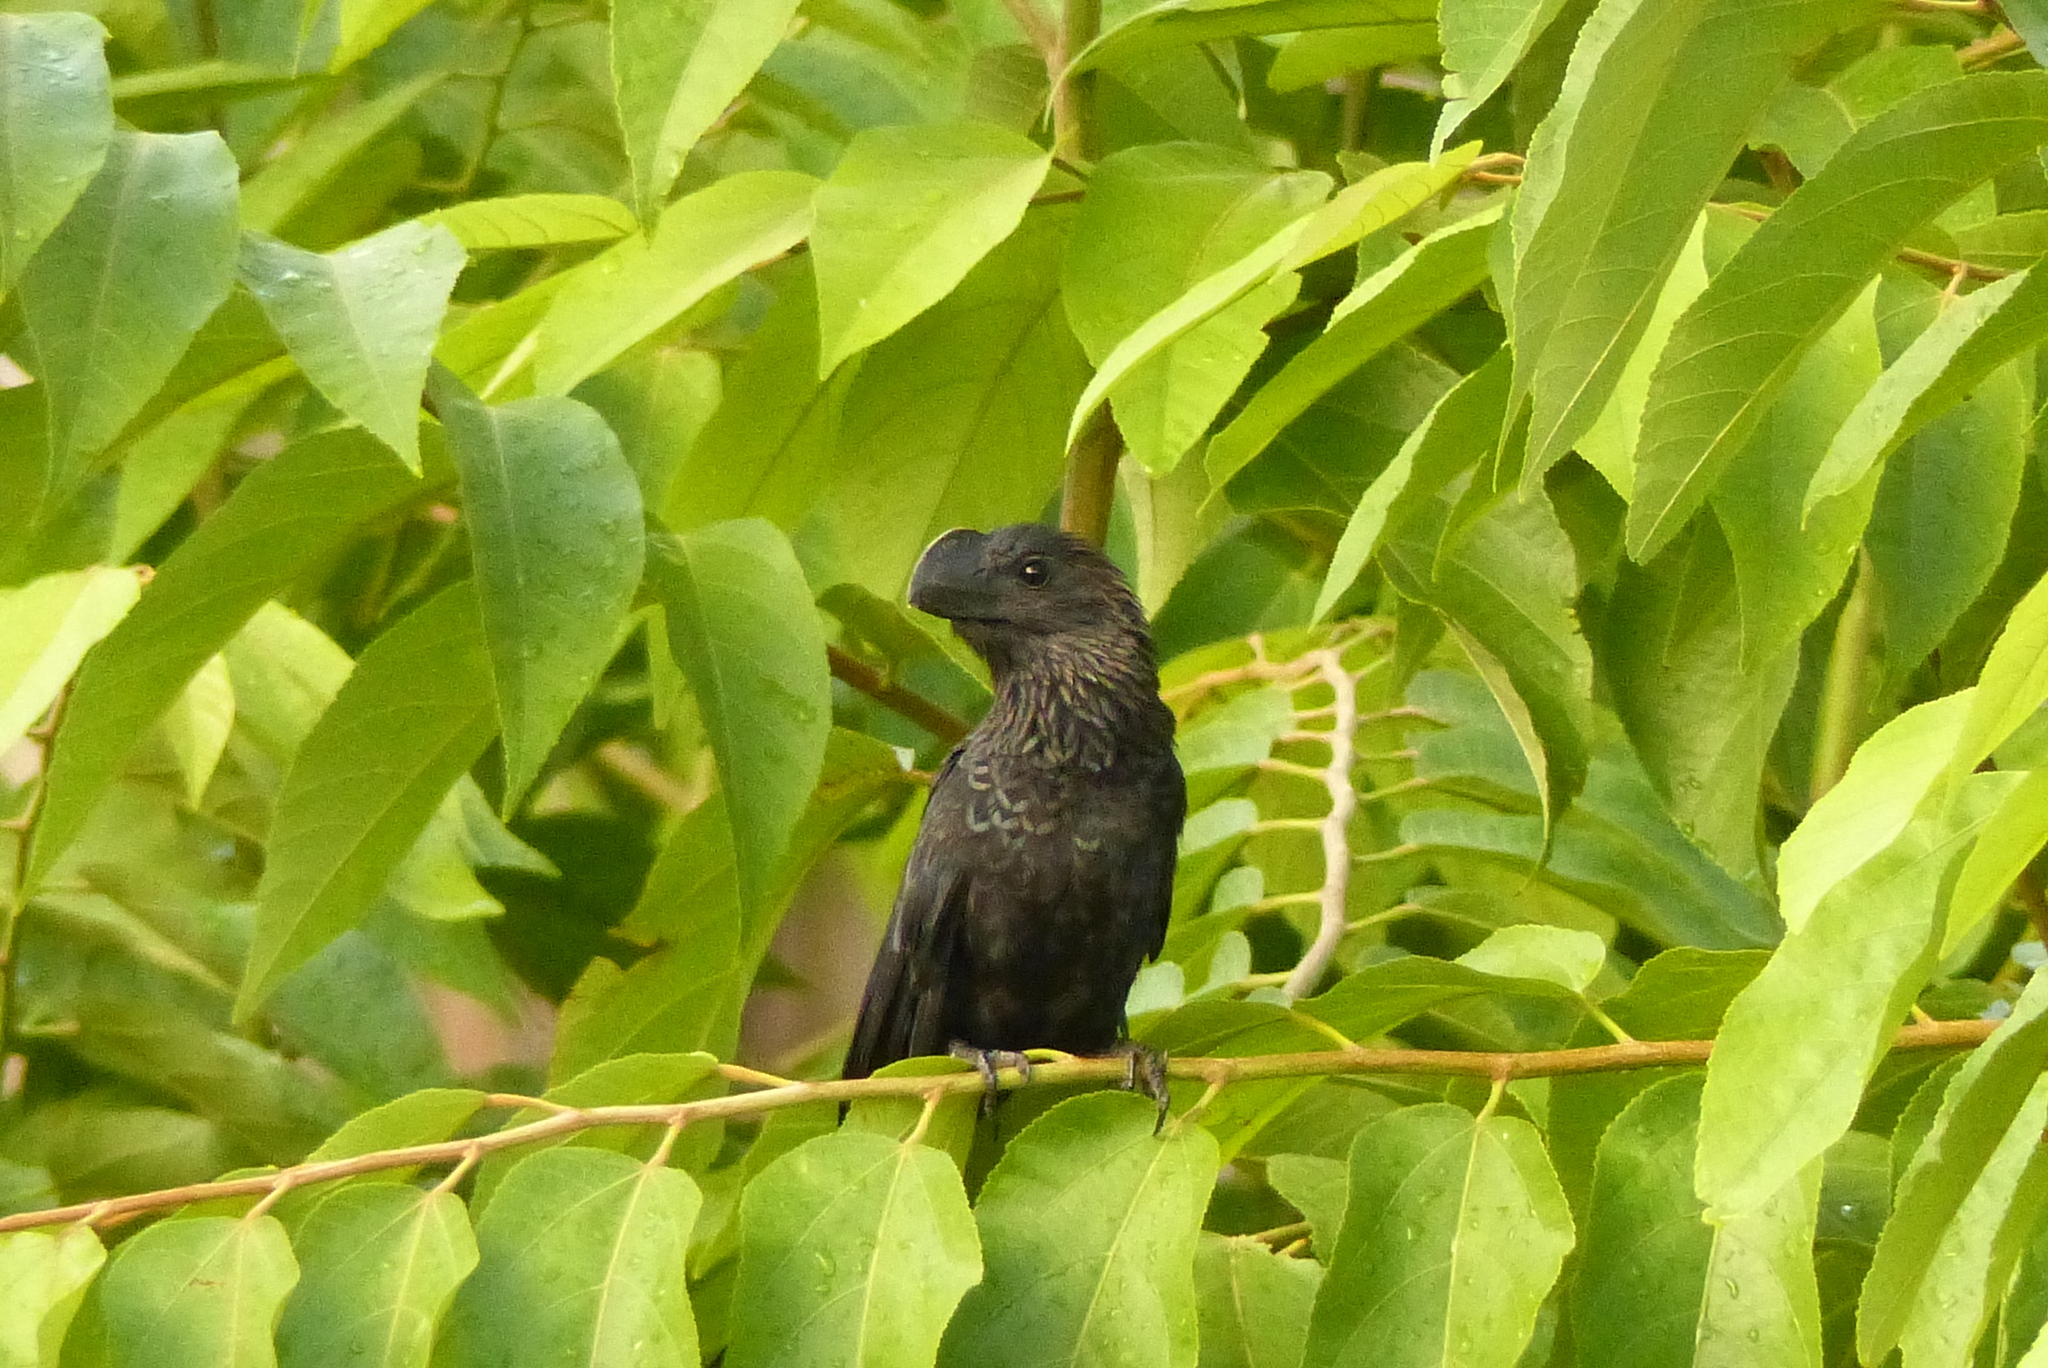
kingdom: Animalia
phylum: Chordata
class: Aves
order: Cuculiformes
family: Cuculidae
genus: Crotophaga
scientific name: Crotophaga ani
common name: Smooth-billed ani
